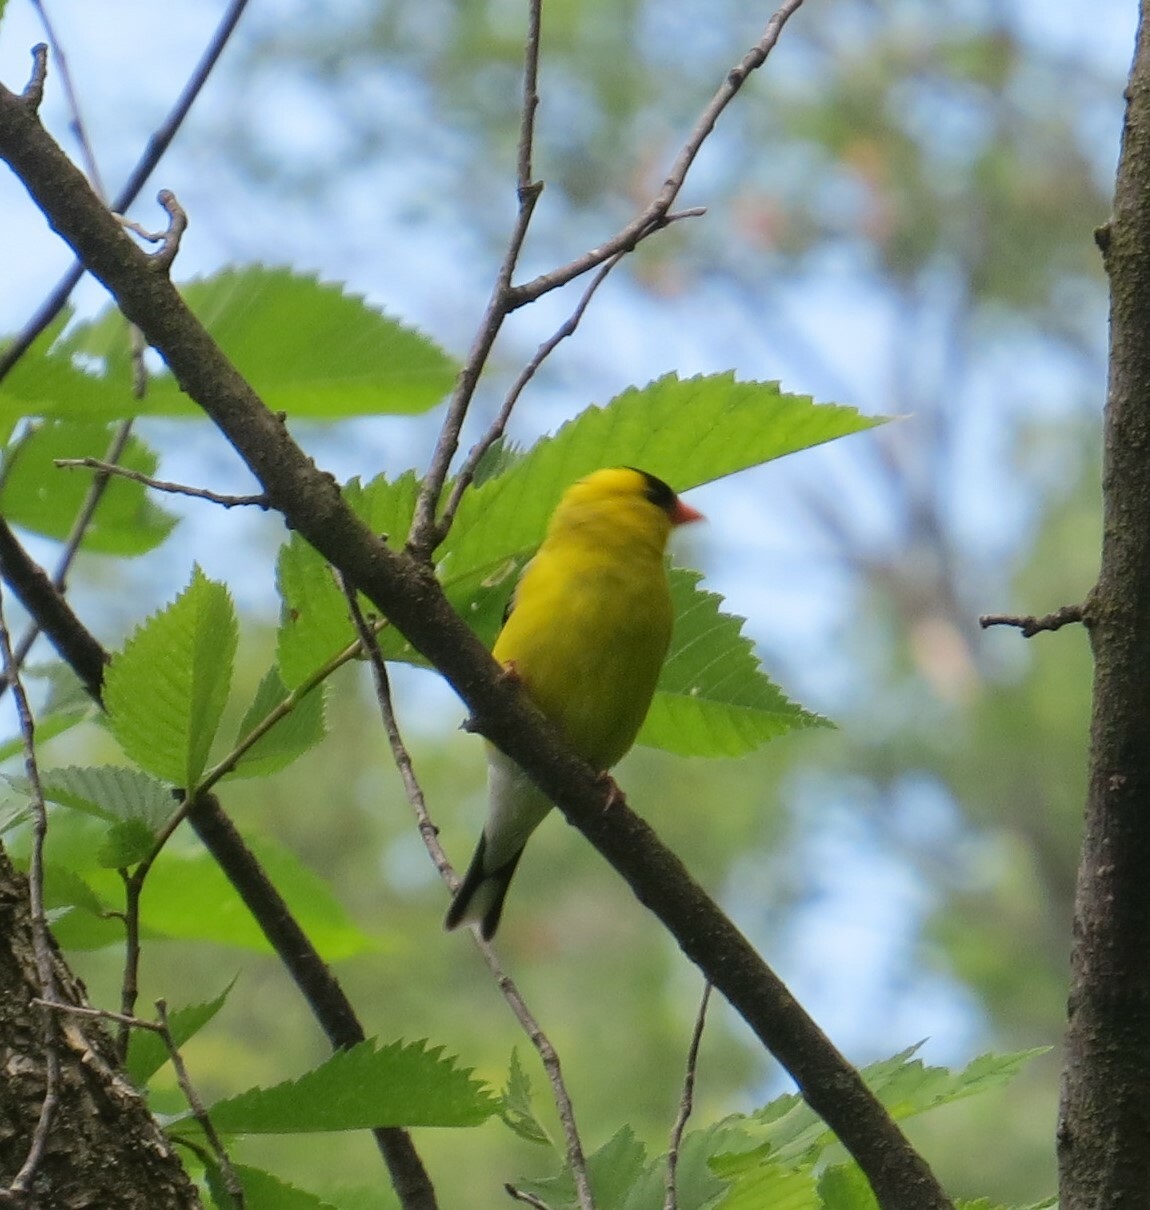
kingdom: Animalia
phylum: Chordata
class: Aves
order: Passeriformes
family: Fringillidae
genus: Spinus
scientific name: Spinus tristis
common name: American goldfinch
